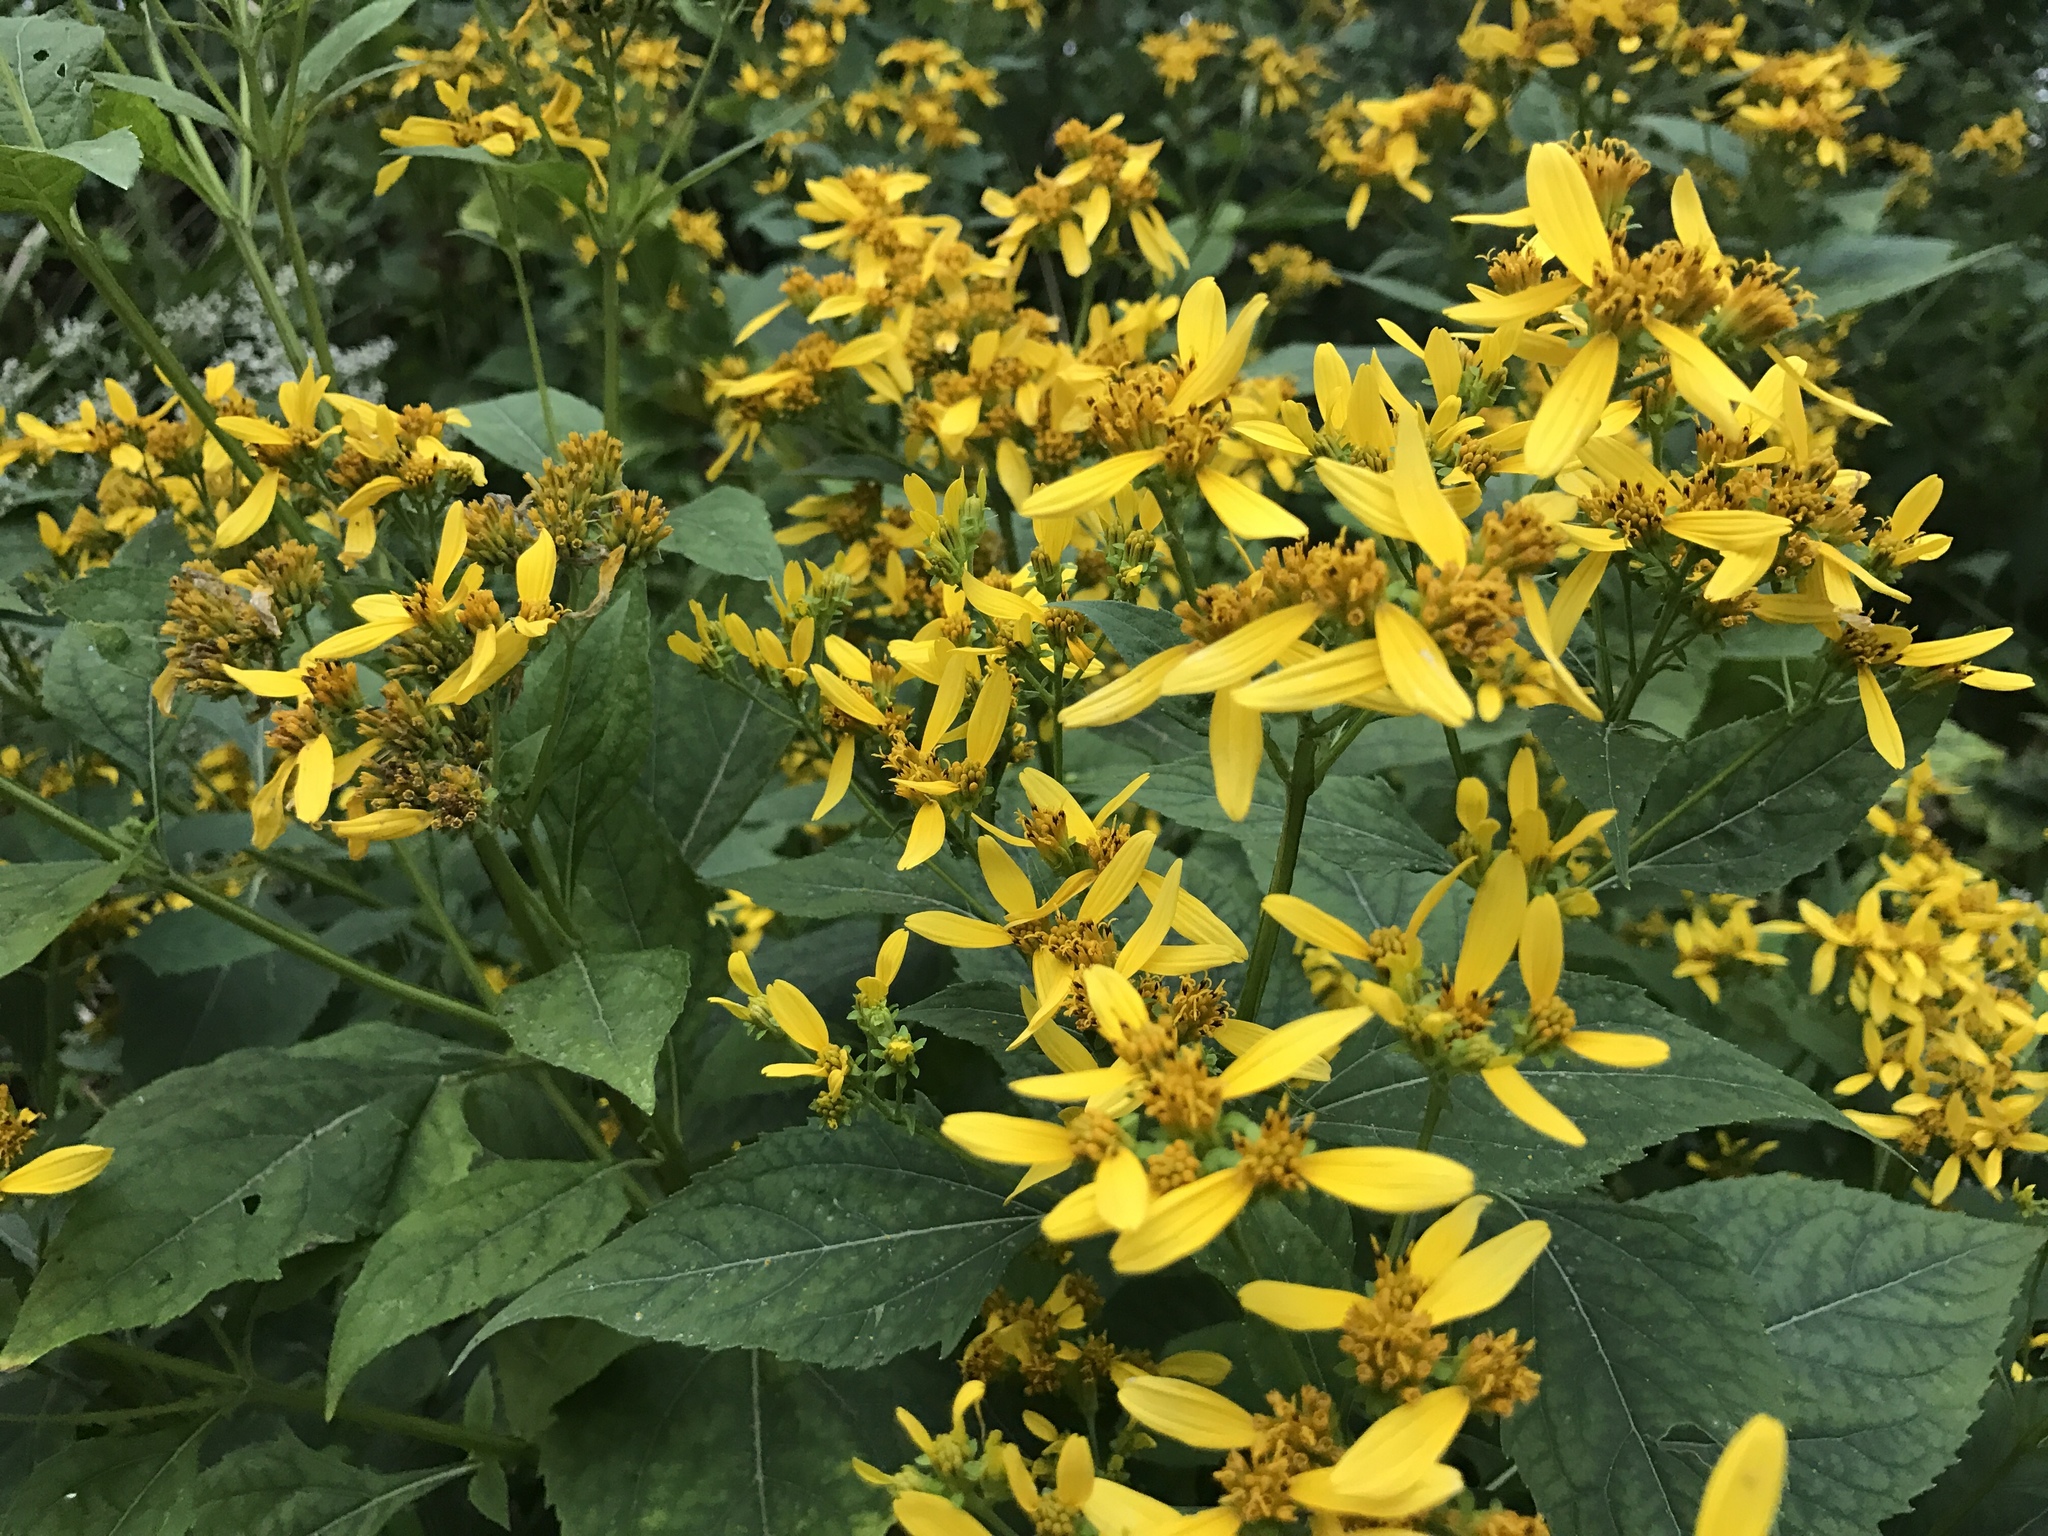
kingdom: Plantae
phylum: Tracheophyta
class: Magnoliopsida
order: Asterales
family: Asteraceae
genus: Verbesina
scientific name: Verbesina occidentalis
